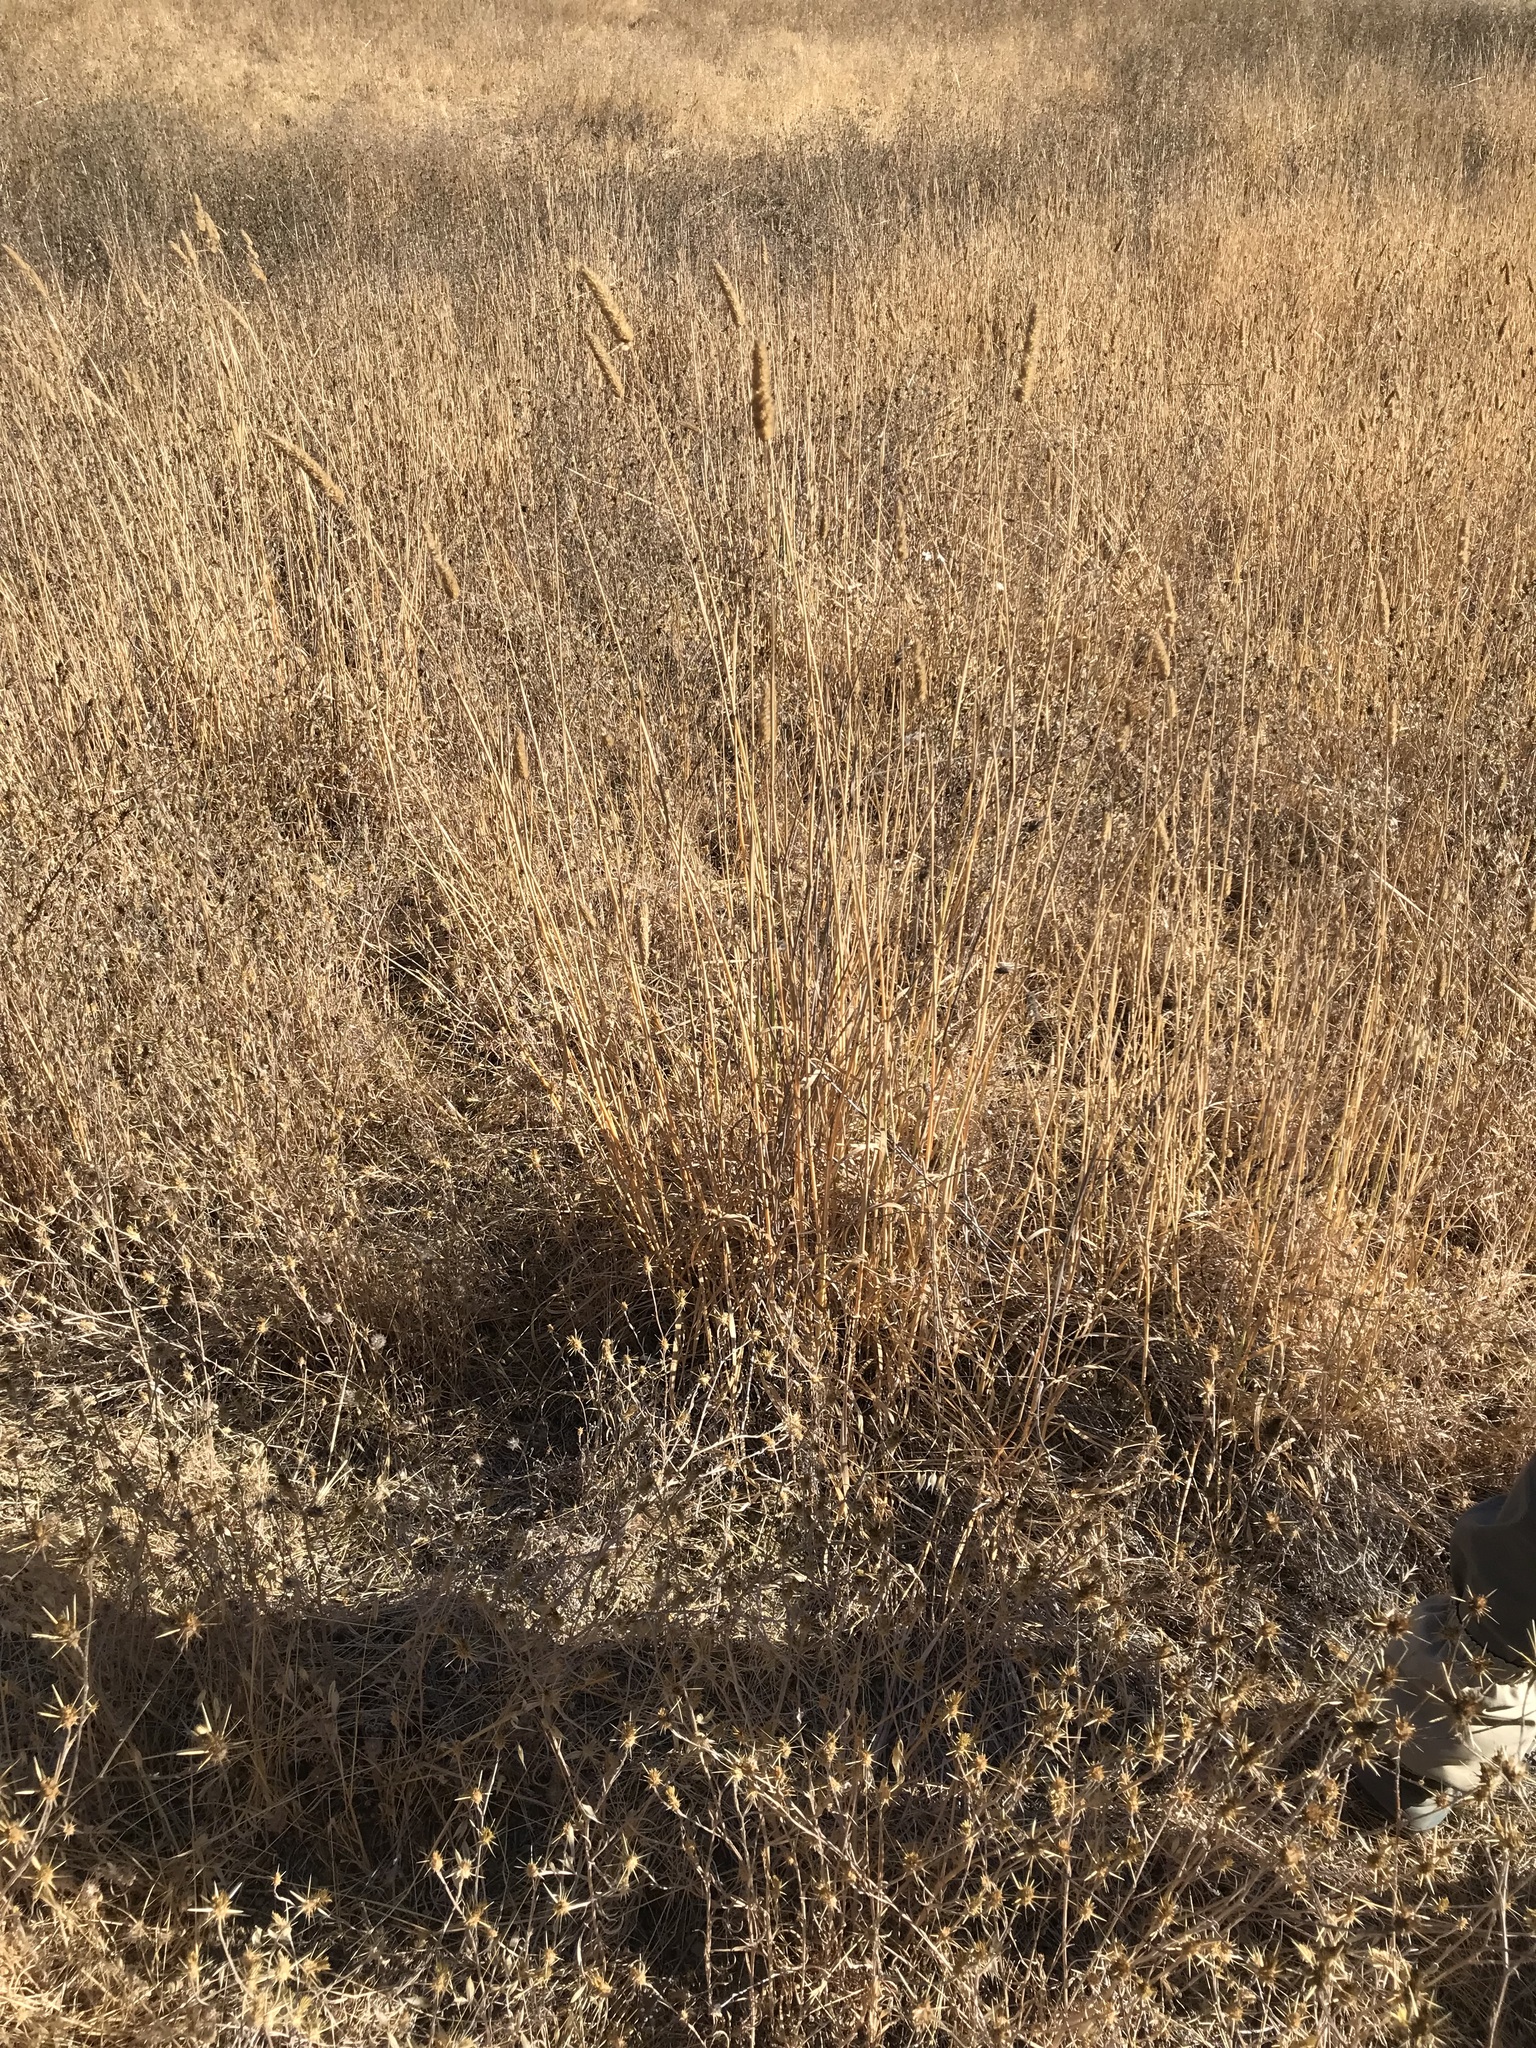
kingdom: Plantae
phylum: Tracheophyta
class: Liliopsida
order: Poales
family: Poaceae
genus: Phalaris
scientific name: Phalaris aquatica
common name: Bulbous canary-grass
